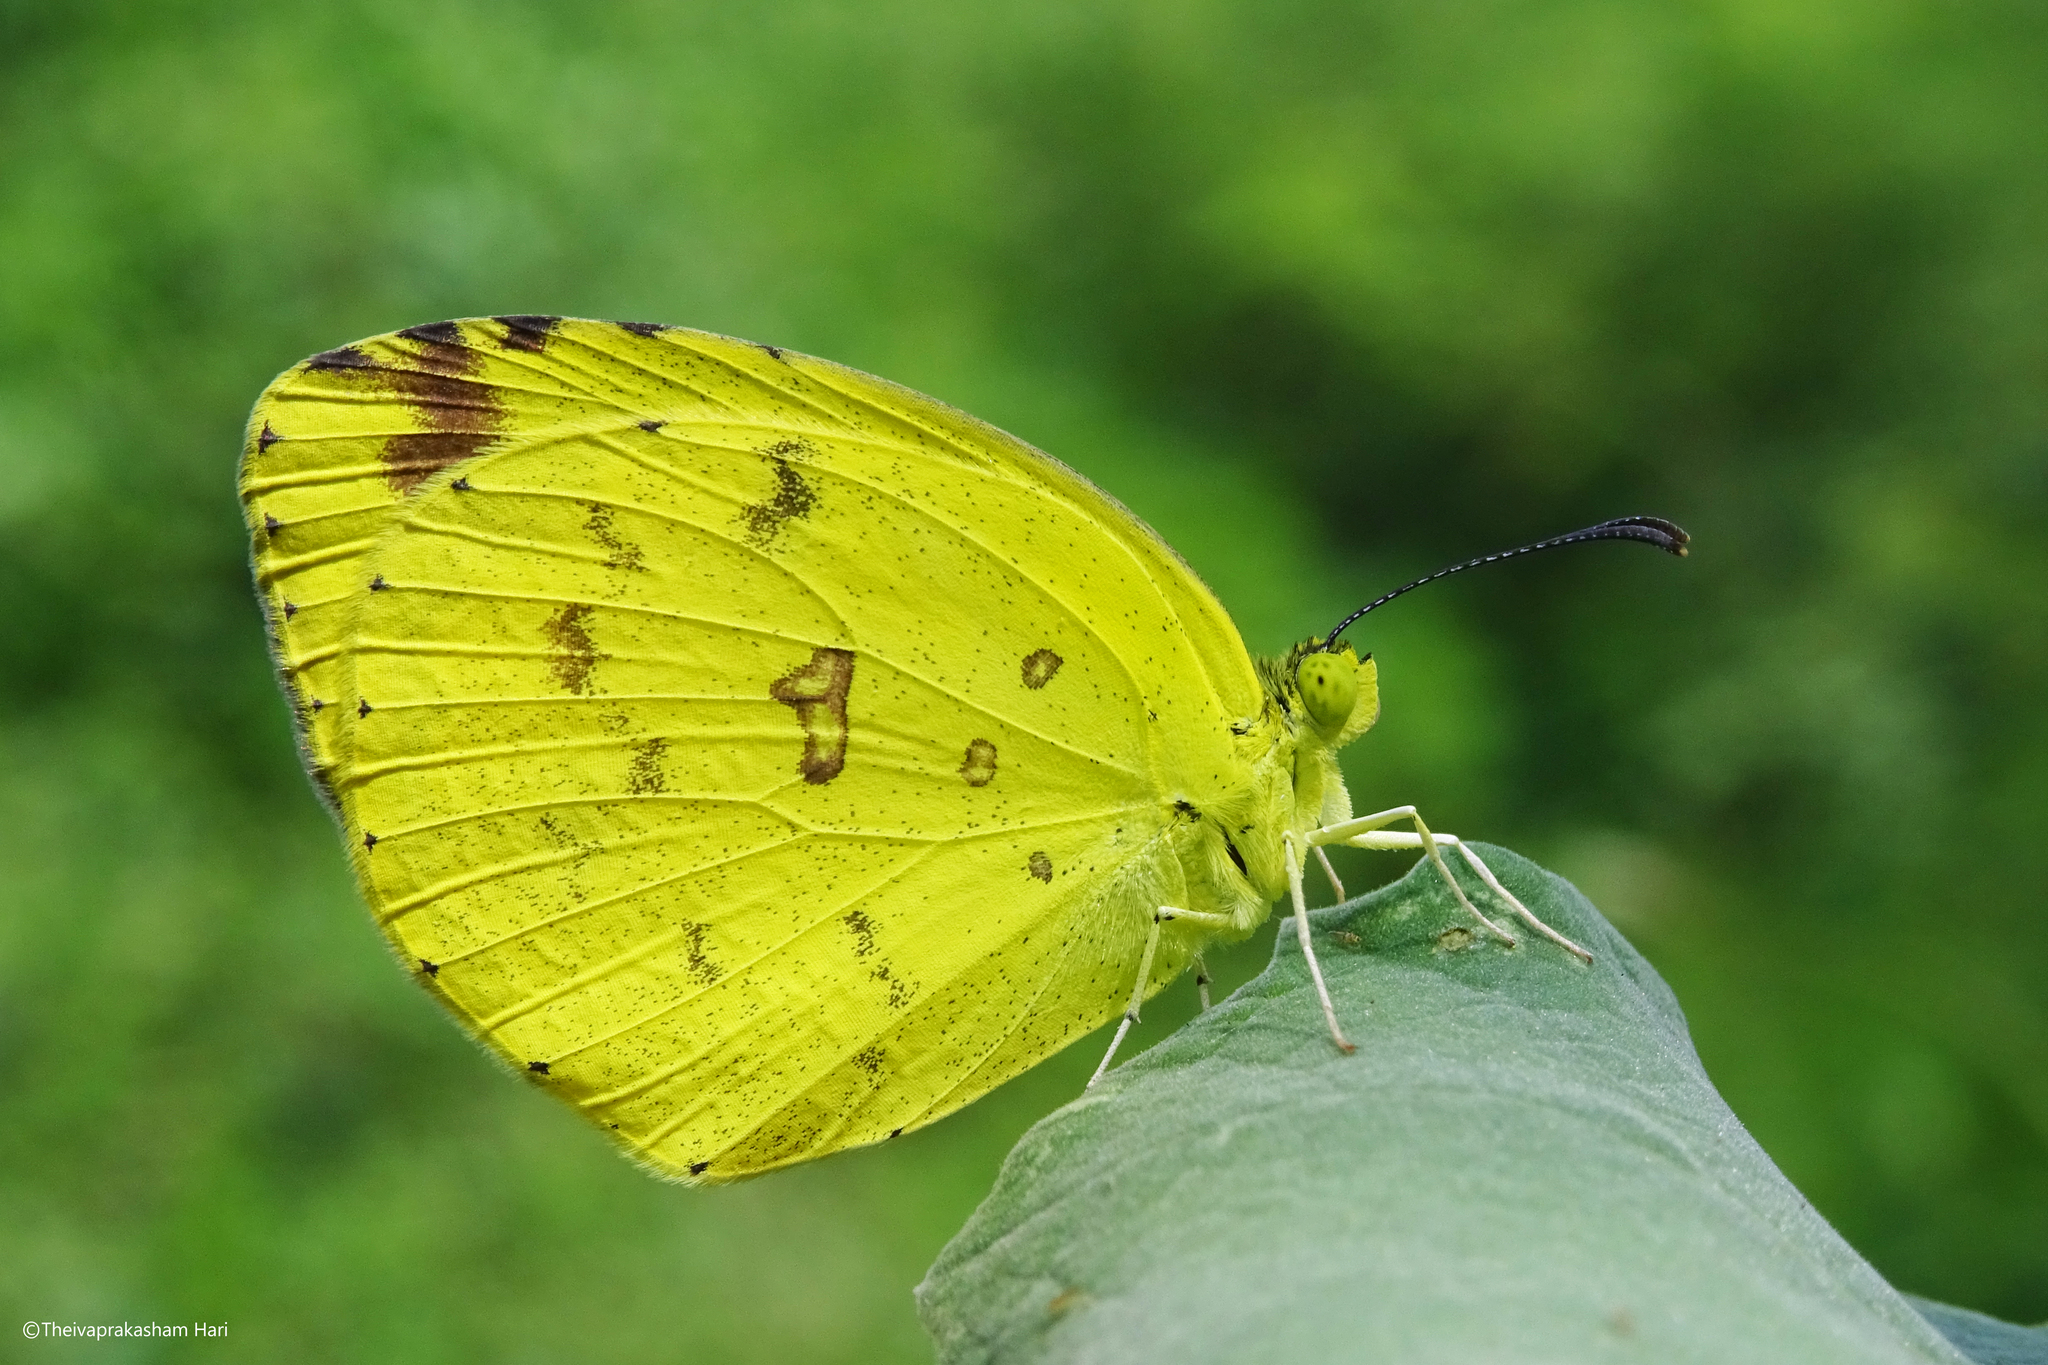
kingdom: Animalia
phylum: Arthropoda
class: Insecta
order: Lepidoptera
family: Pieridae
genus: Eurema
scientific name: Eurema hecabe
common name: Pale grass yellow
